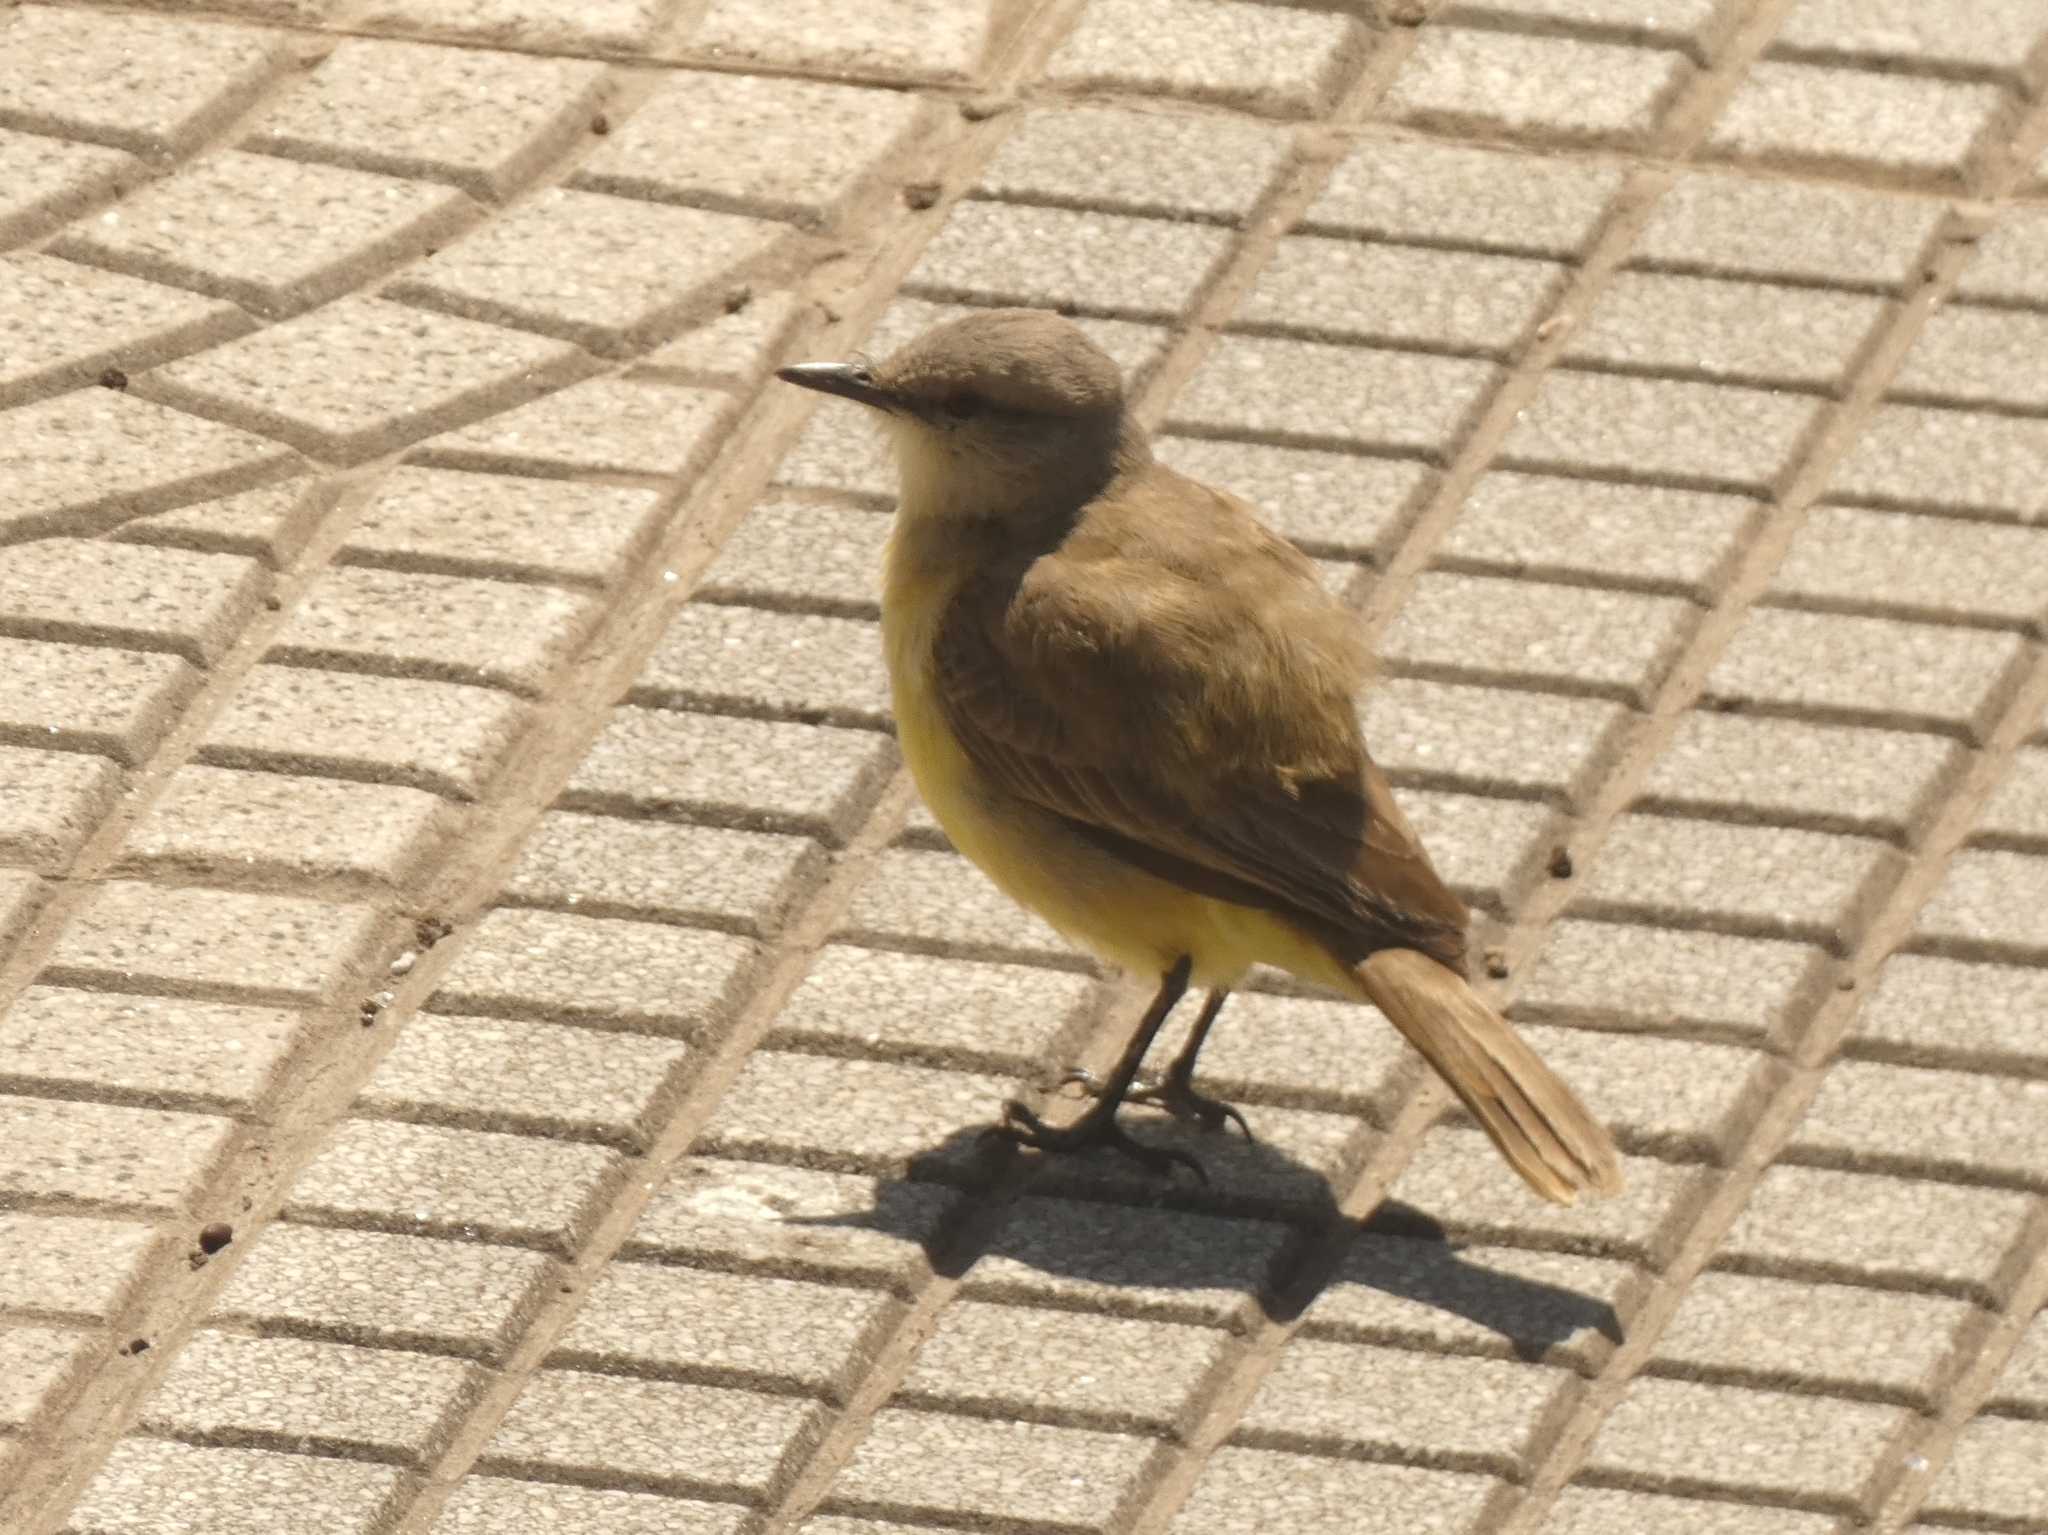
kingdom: Animalia
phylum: Chordata
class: Aves
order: Passeriformes
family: Tyrannidae
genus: Machetornis
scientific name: Machetornis rixosa
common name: Cattle tyrant
